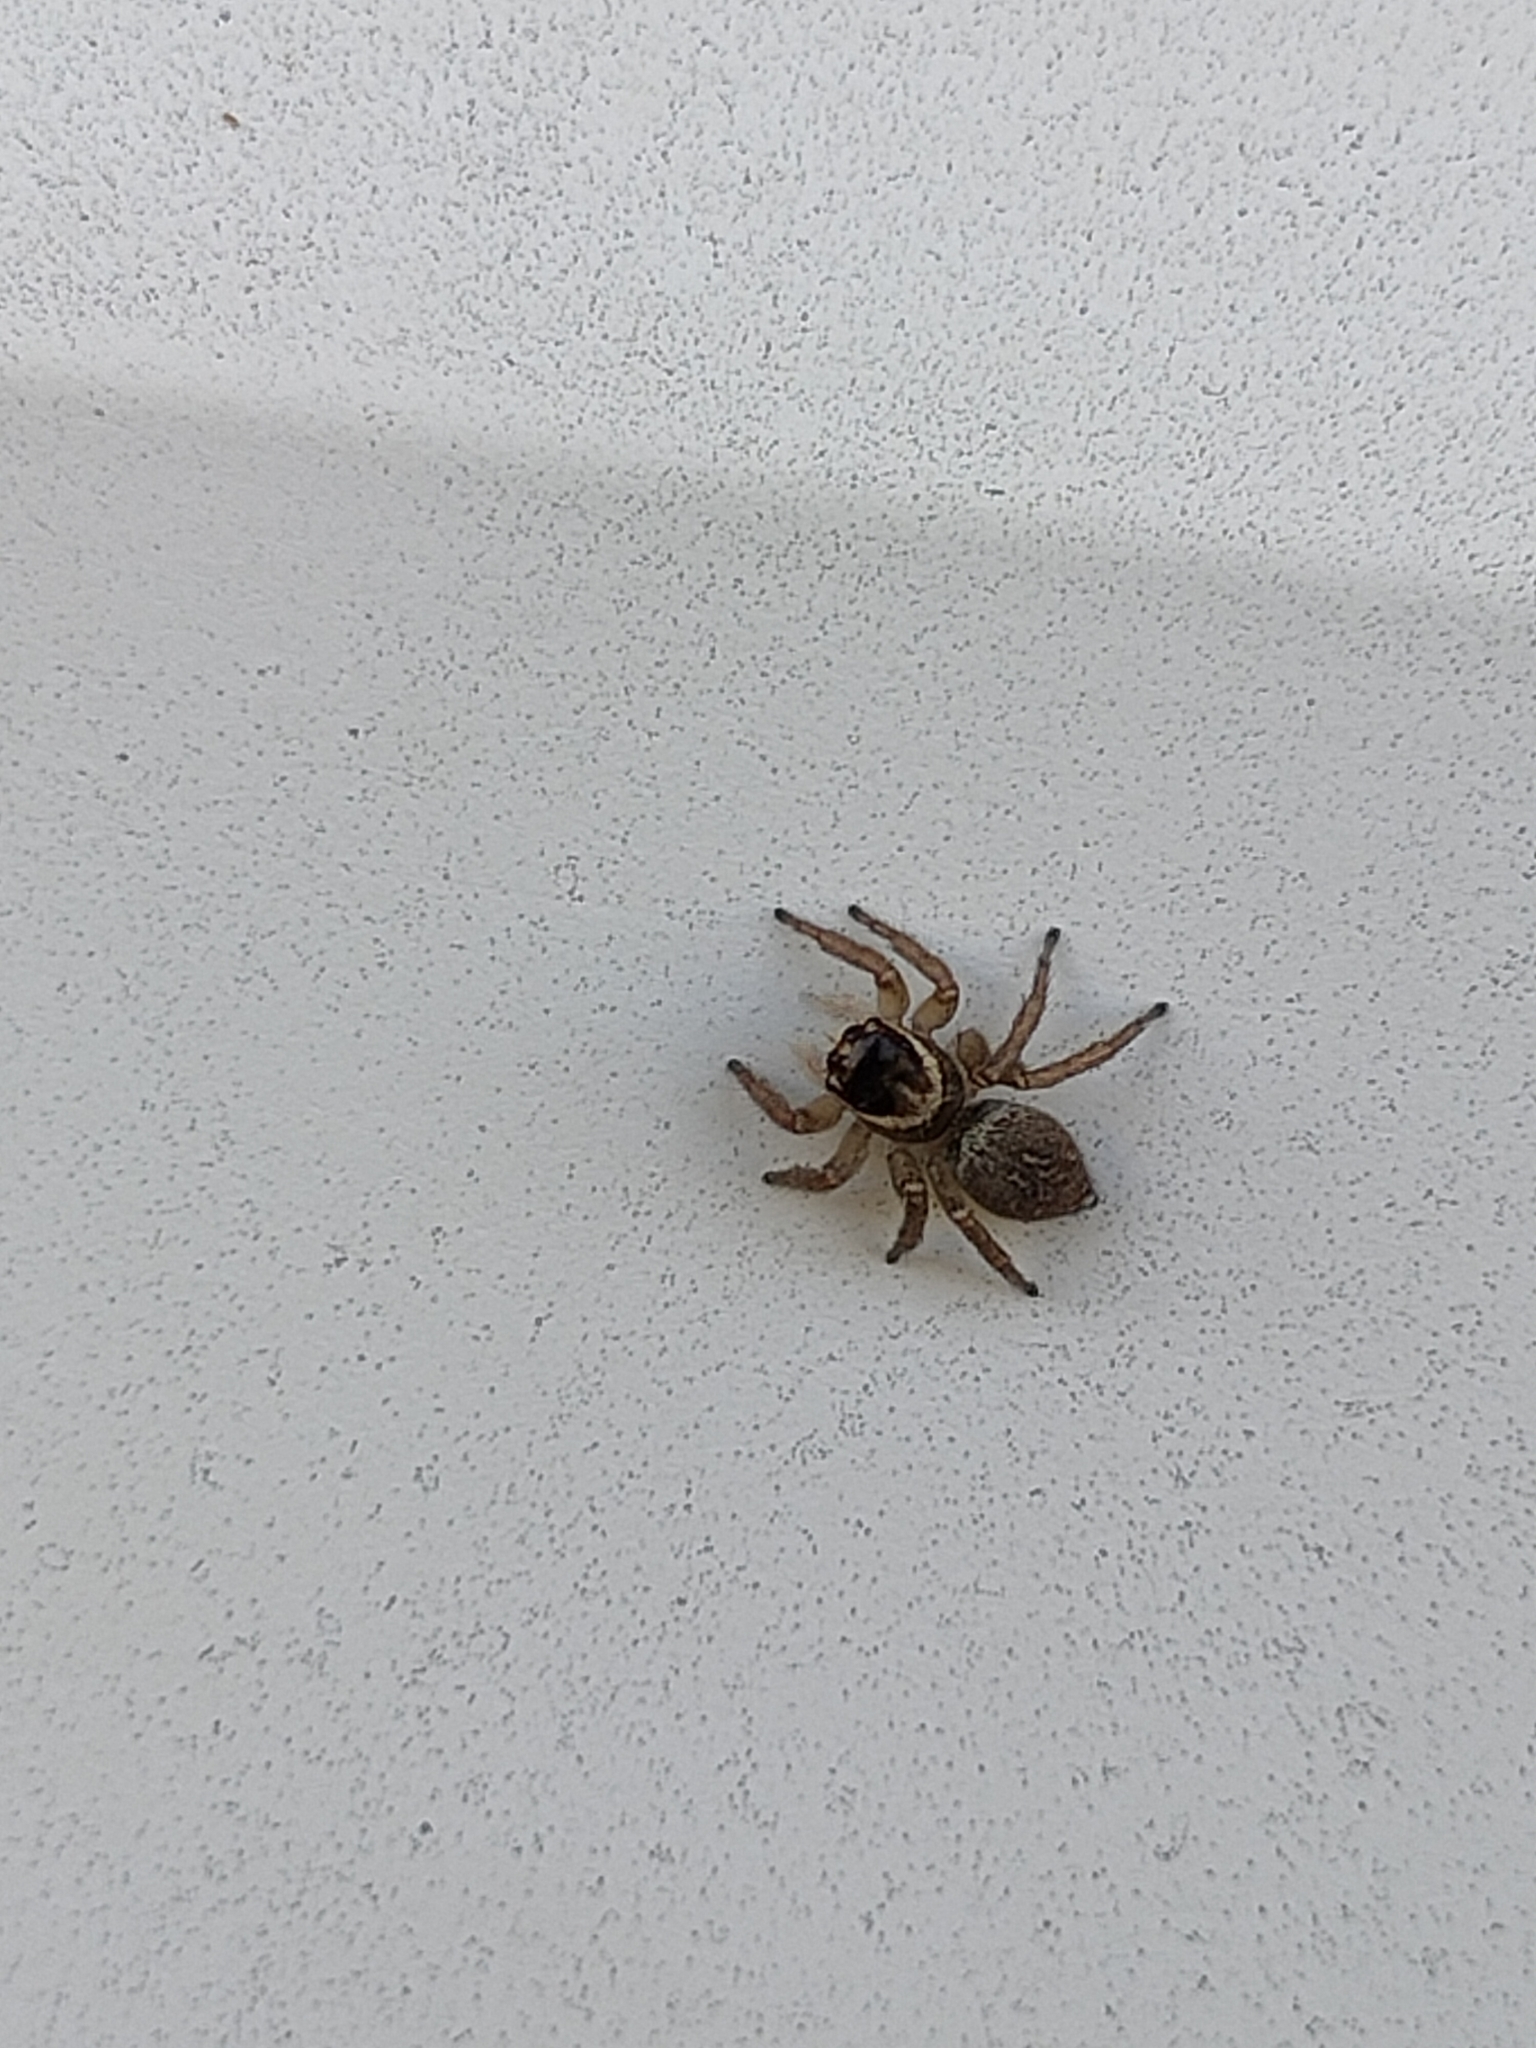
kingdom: Animalia
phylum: Arthropoda
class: Arachnida
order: Araneae
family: Salticidae
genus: Maratus
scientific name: Maratus griseus
